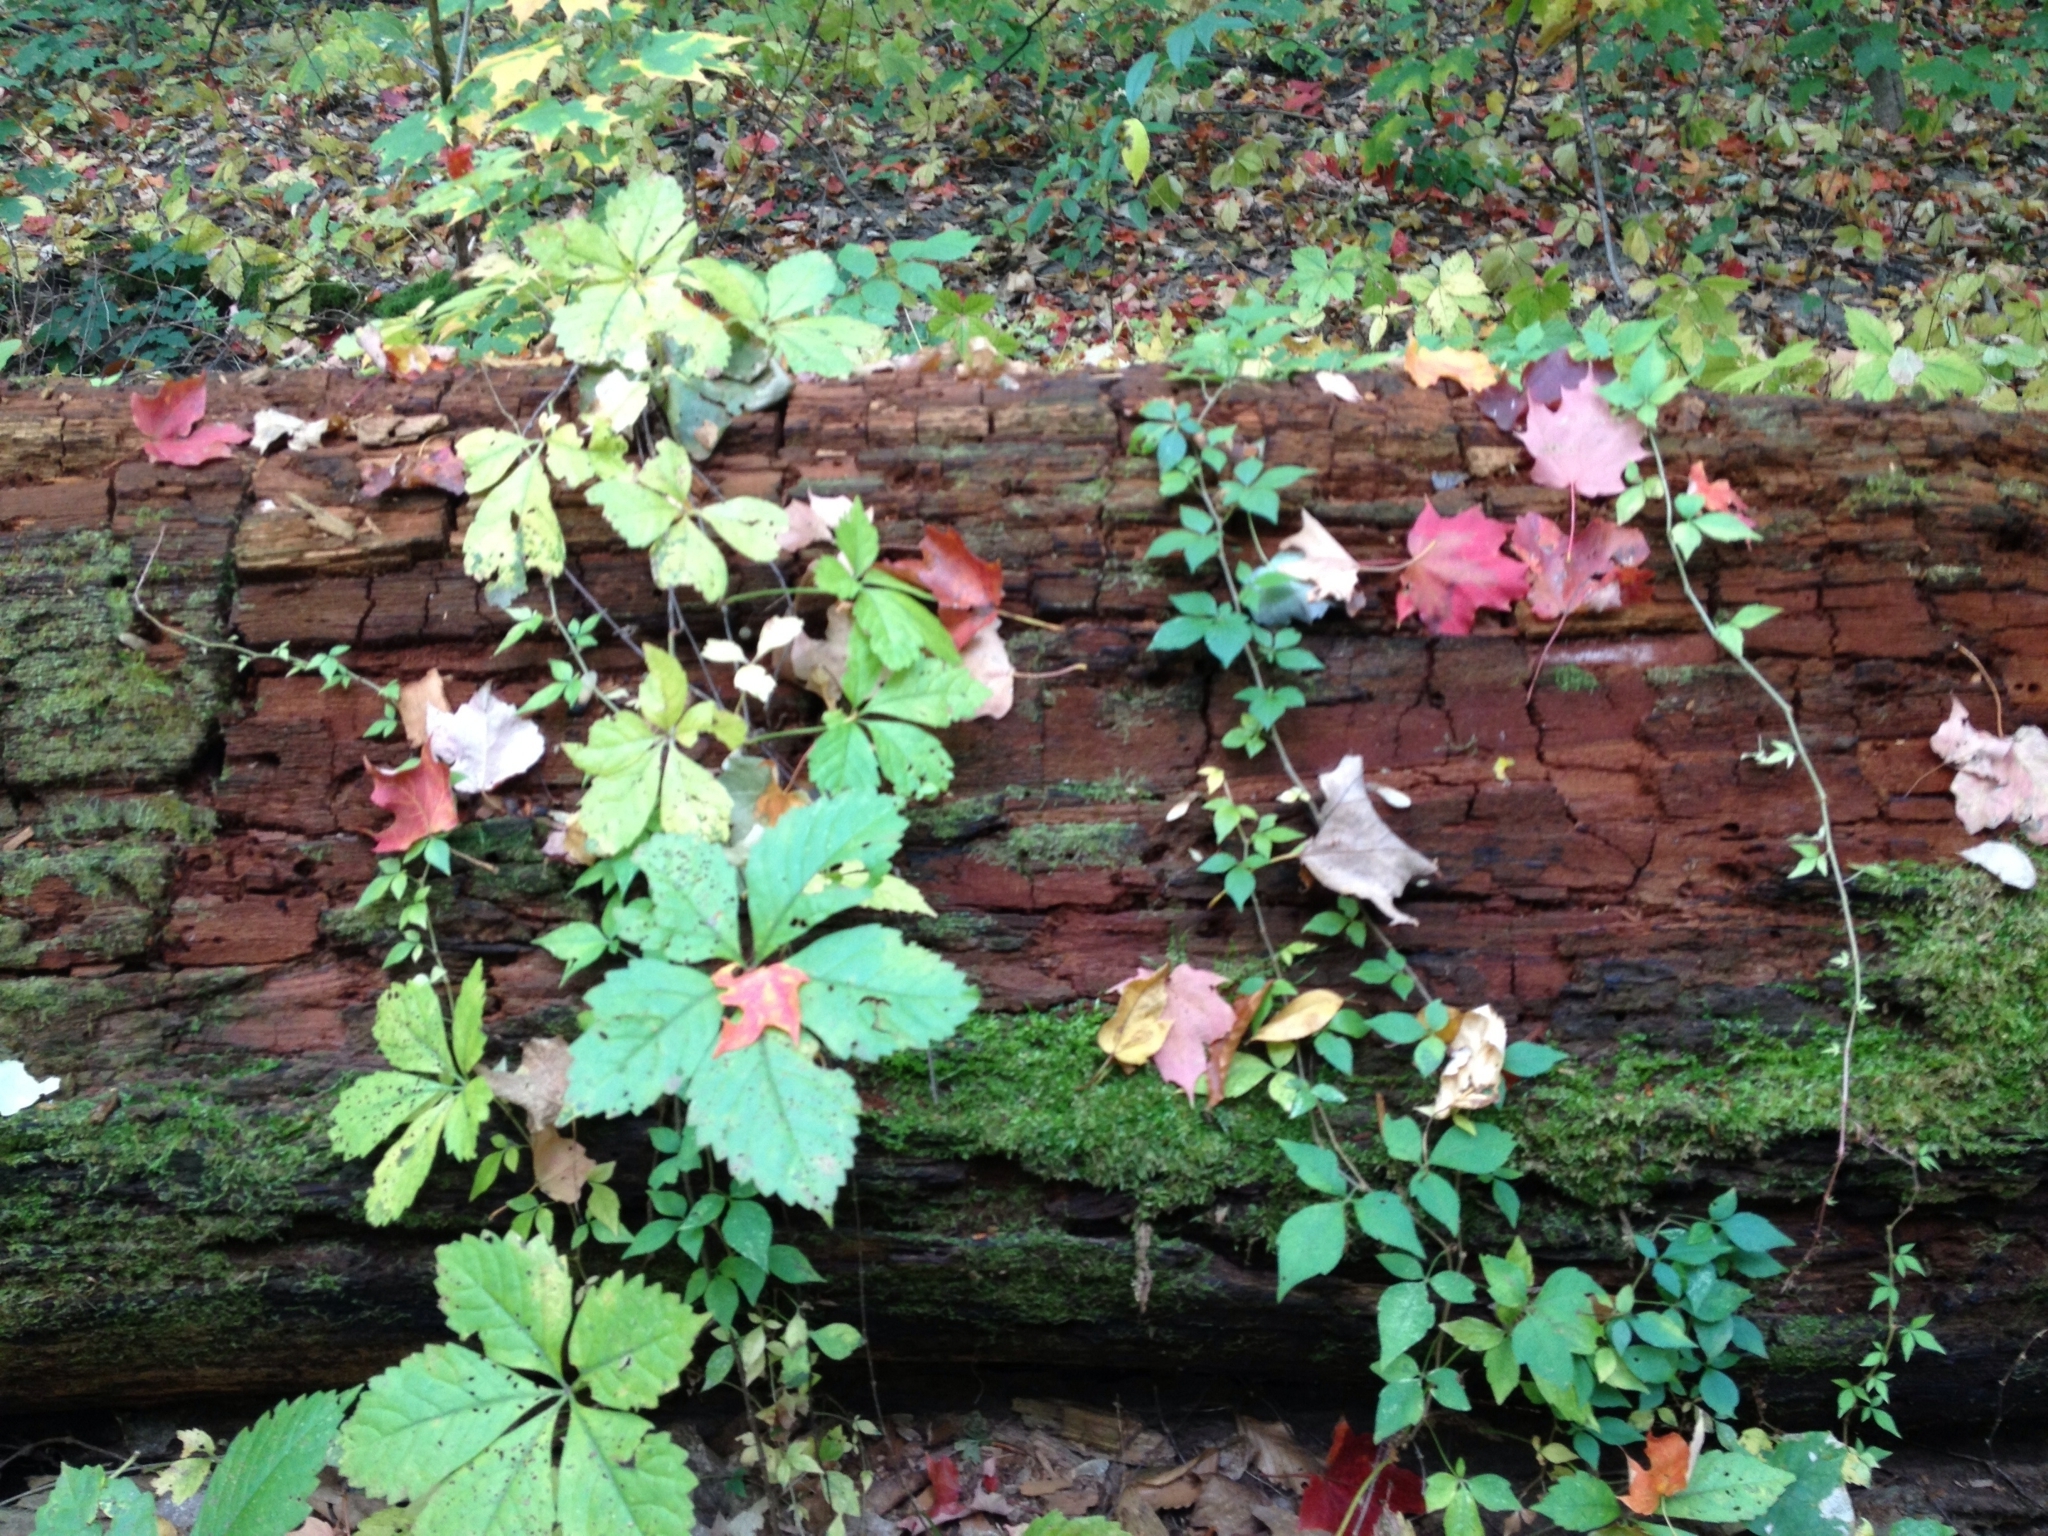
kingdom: Plantae
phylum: Tracheophyta
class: Magnoliopsida
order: Vitales
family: Vitaceae
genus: Parthenocissus
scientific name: Parthenocissus quinquefolia
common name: Virginia-creeper
